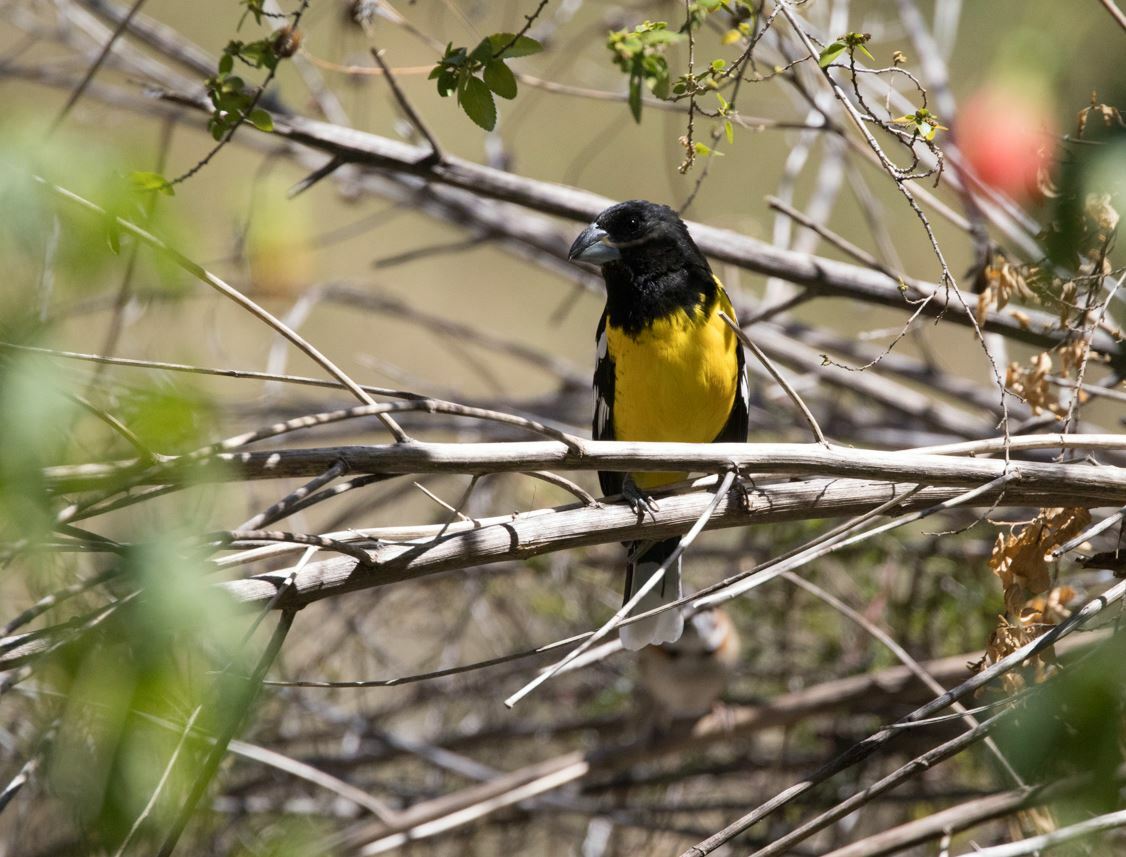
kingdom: Animalia
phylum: Chordata
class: Aves
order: Passeriformes
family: Cardinalidae
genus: Pheucticus
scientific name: Pheucticus aureoventris
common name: Black-backed grosbeak
